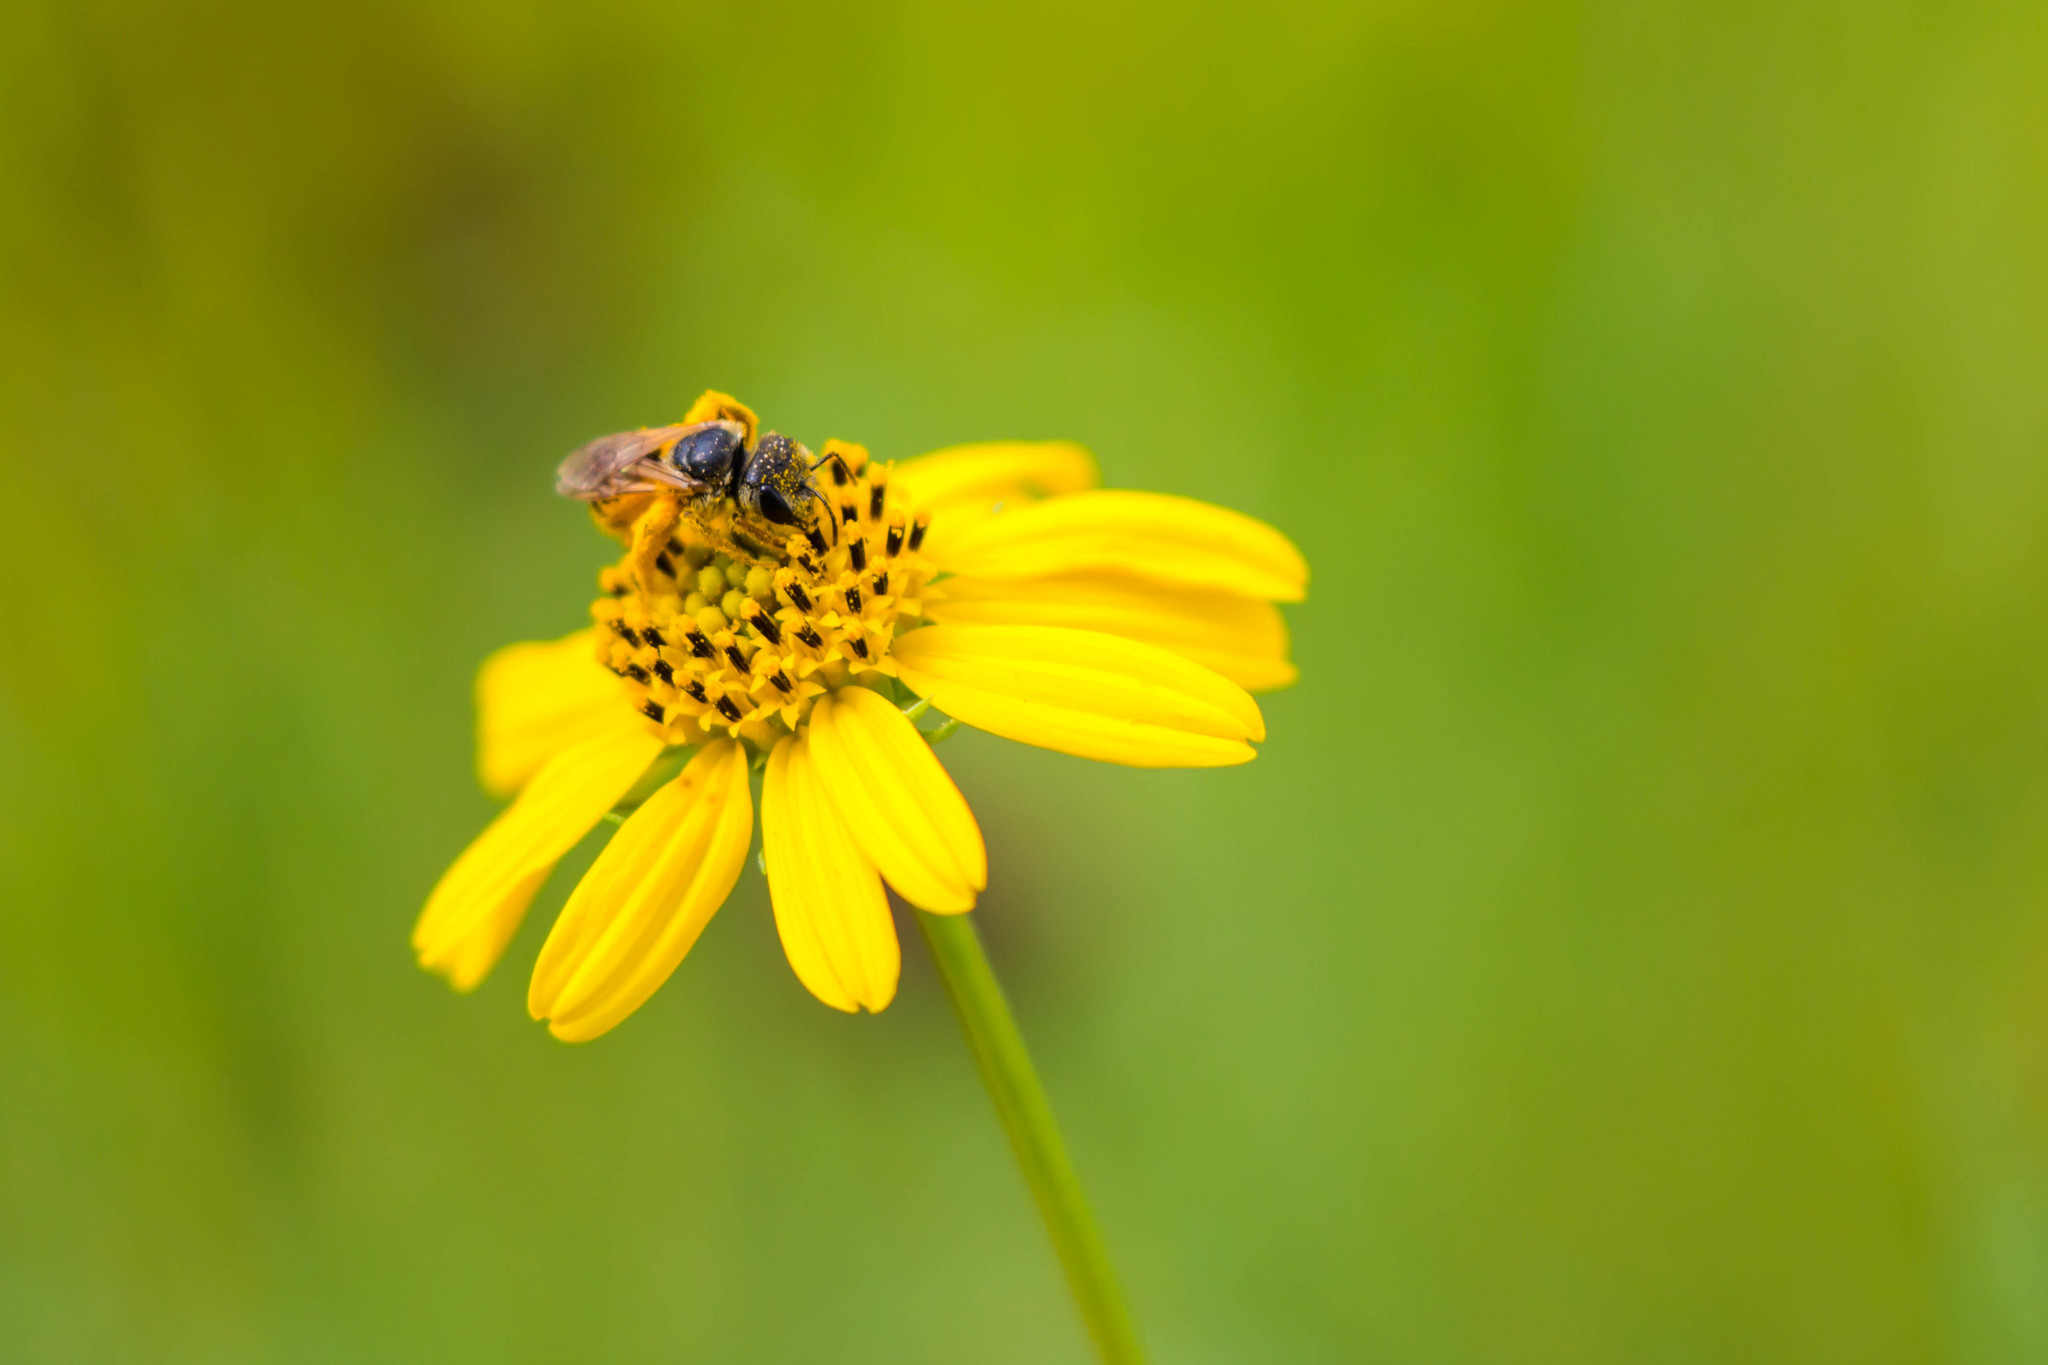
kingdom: Animalia
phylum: Arthropoda
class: Insecta
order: Hymenoptera
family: Halictidae
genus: Halictus
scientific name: Halictus ligatus
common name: Ligated furrow bee
